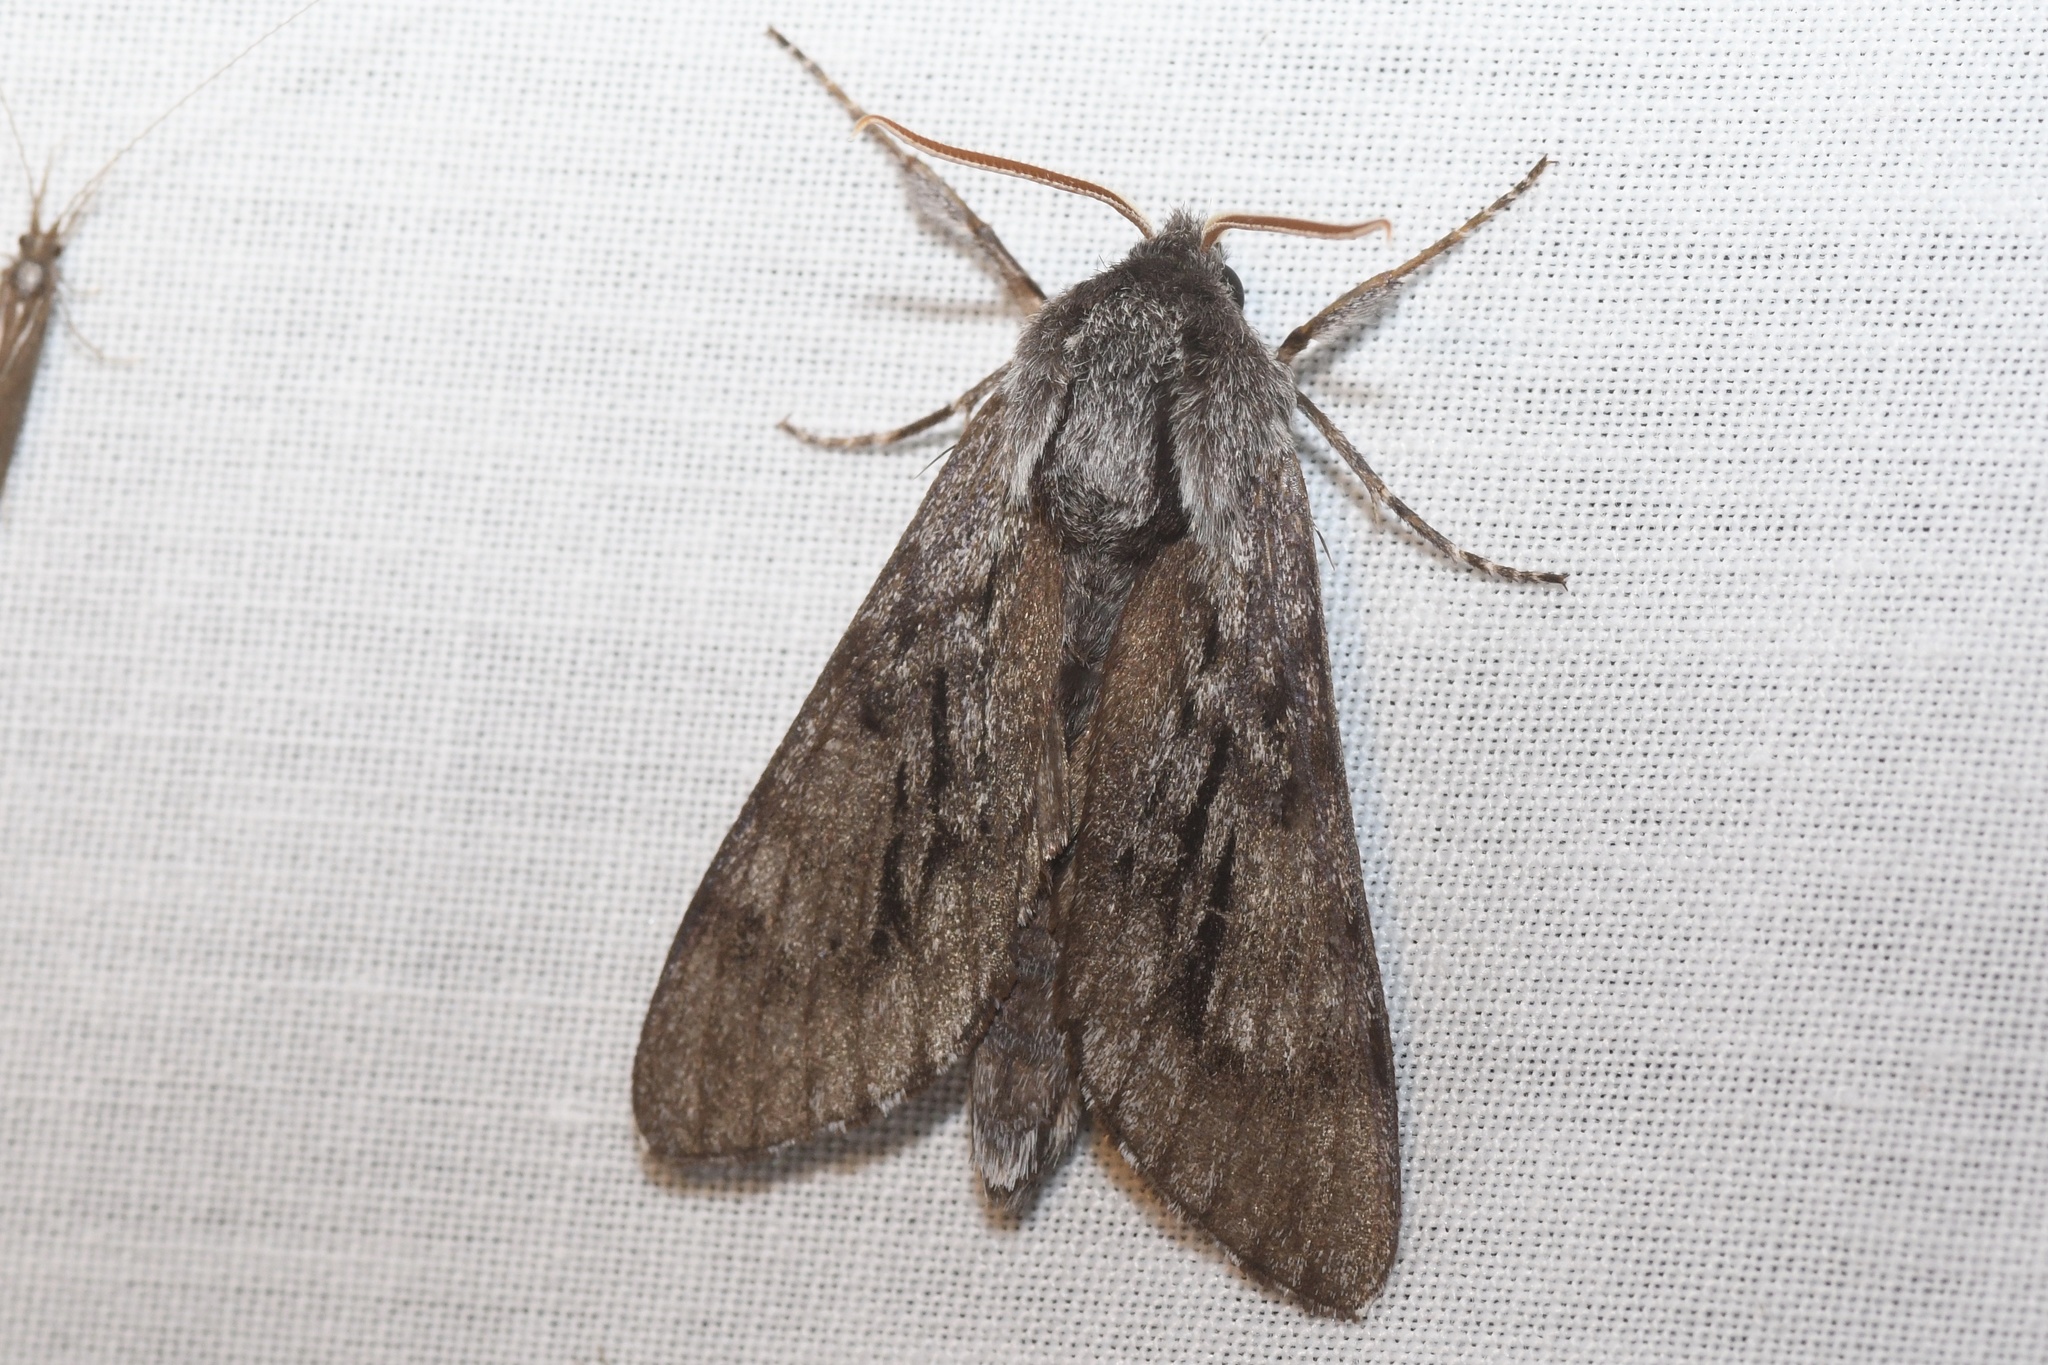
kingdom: Animalia
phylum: Arthropoda
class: Insecta
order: Lepidoptera
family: Sphingidae
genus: Lapara
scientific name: Lapara bombycoides
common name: Northern pine sphinx
